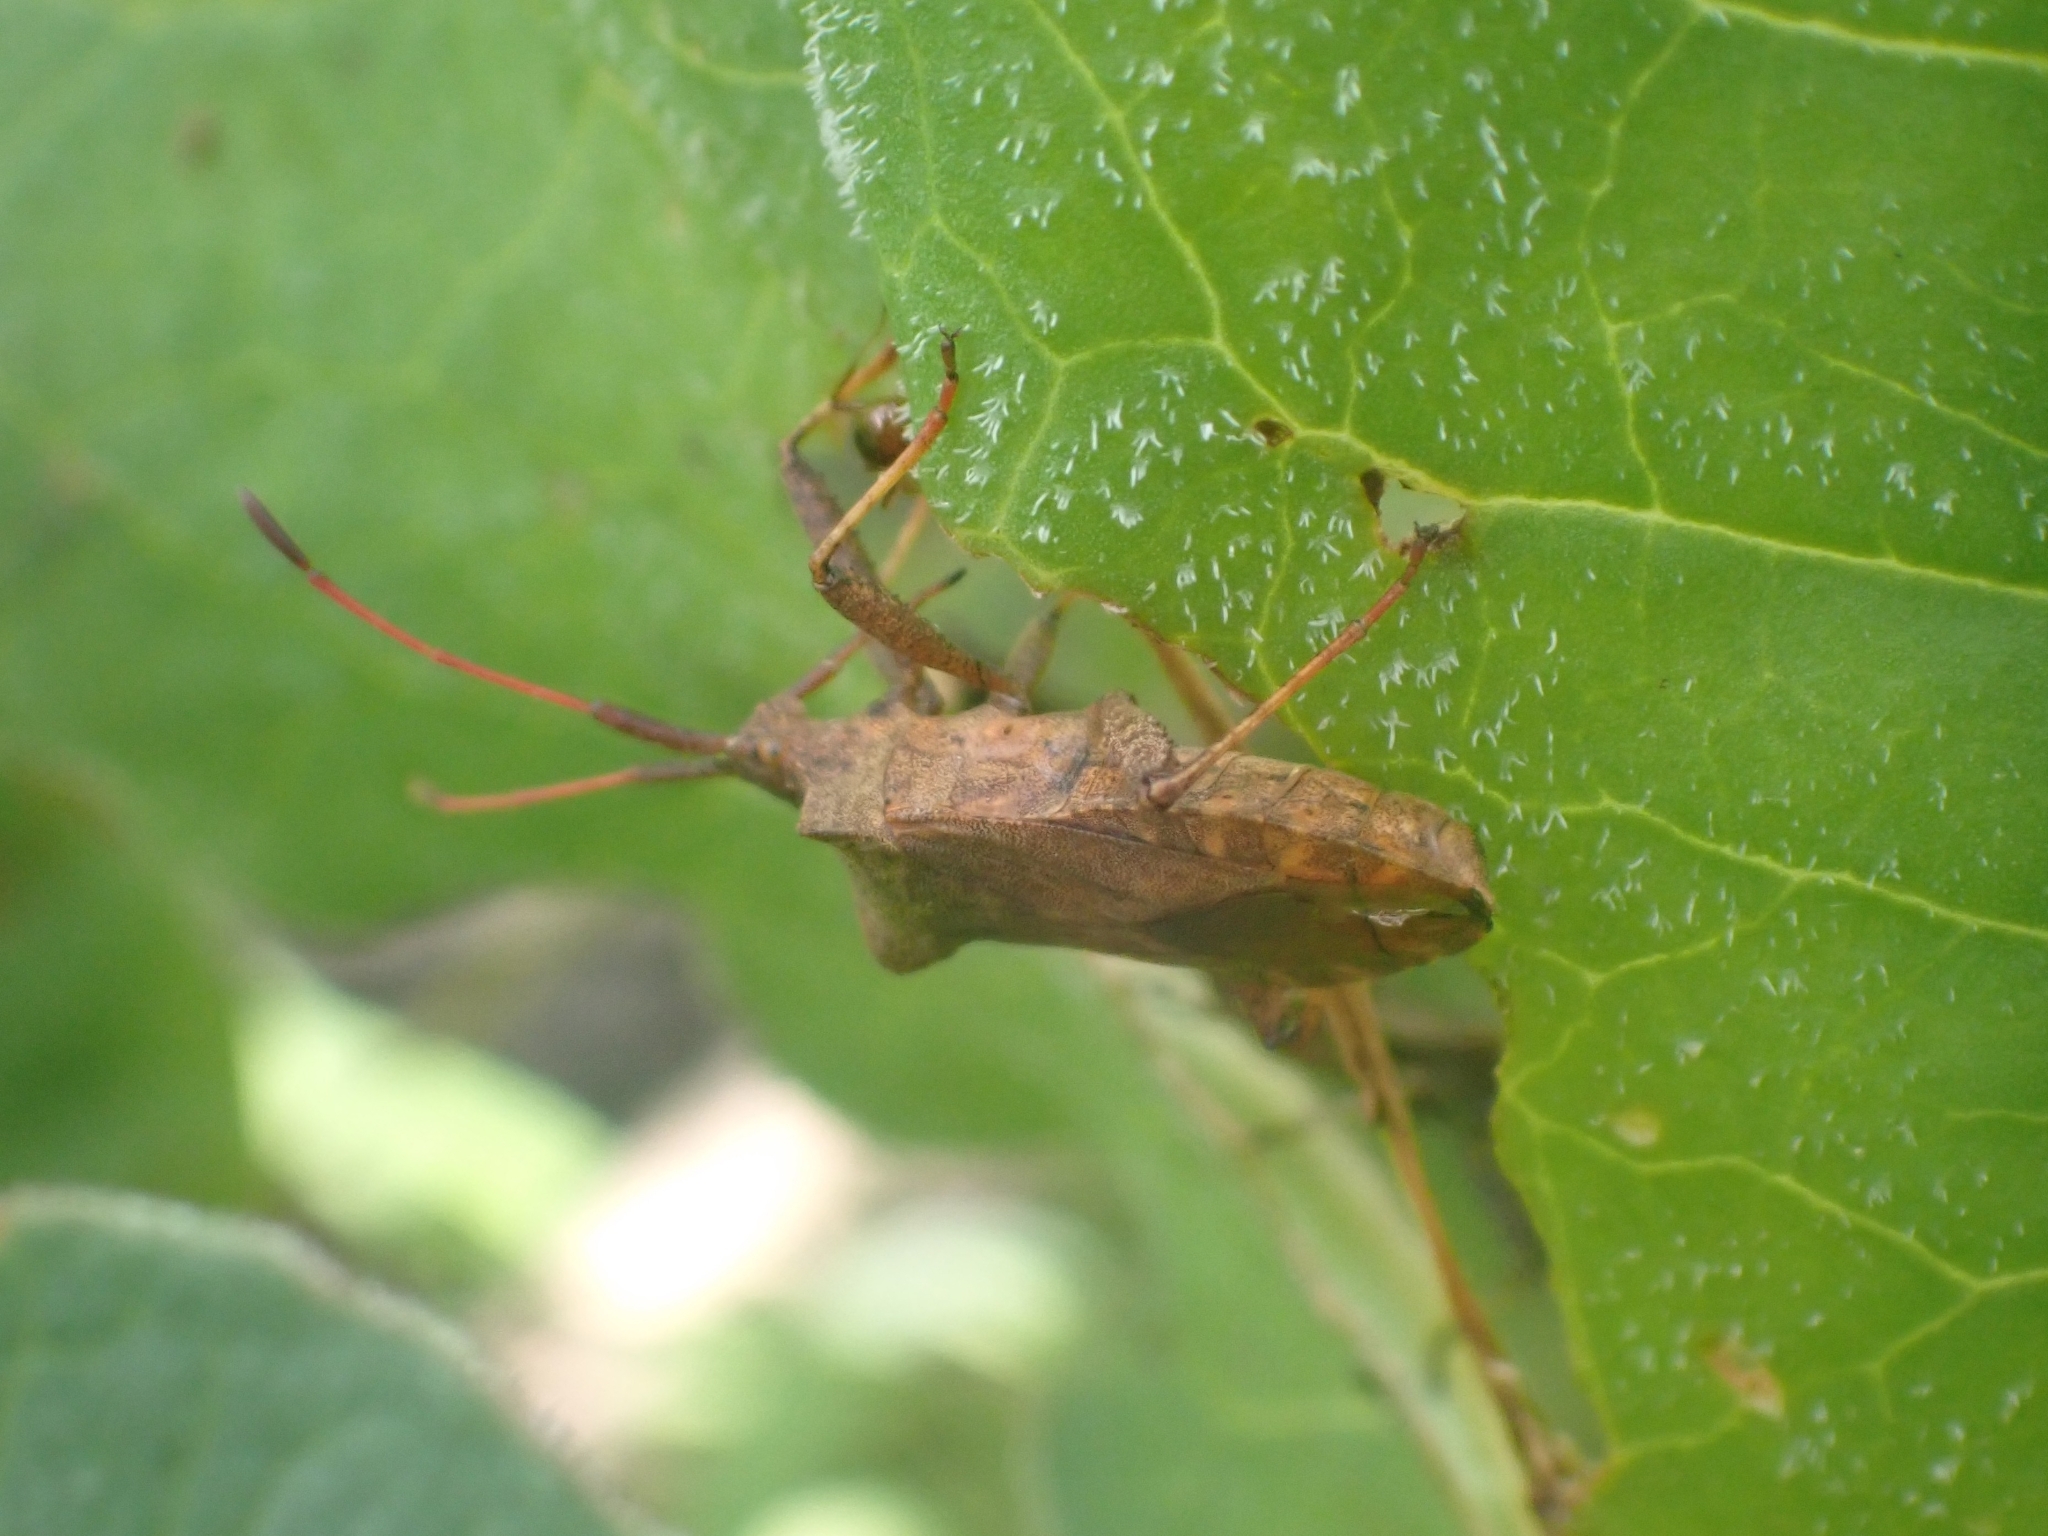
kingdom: Animalia
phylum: Arthropoda
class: Insecta
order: Hemiptera
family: Coreidae
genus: Coreus
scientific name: Coreus marginatus
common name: Dock bug
